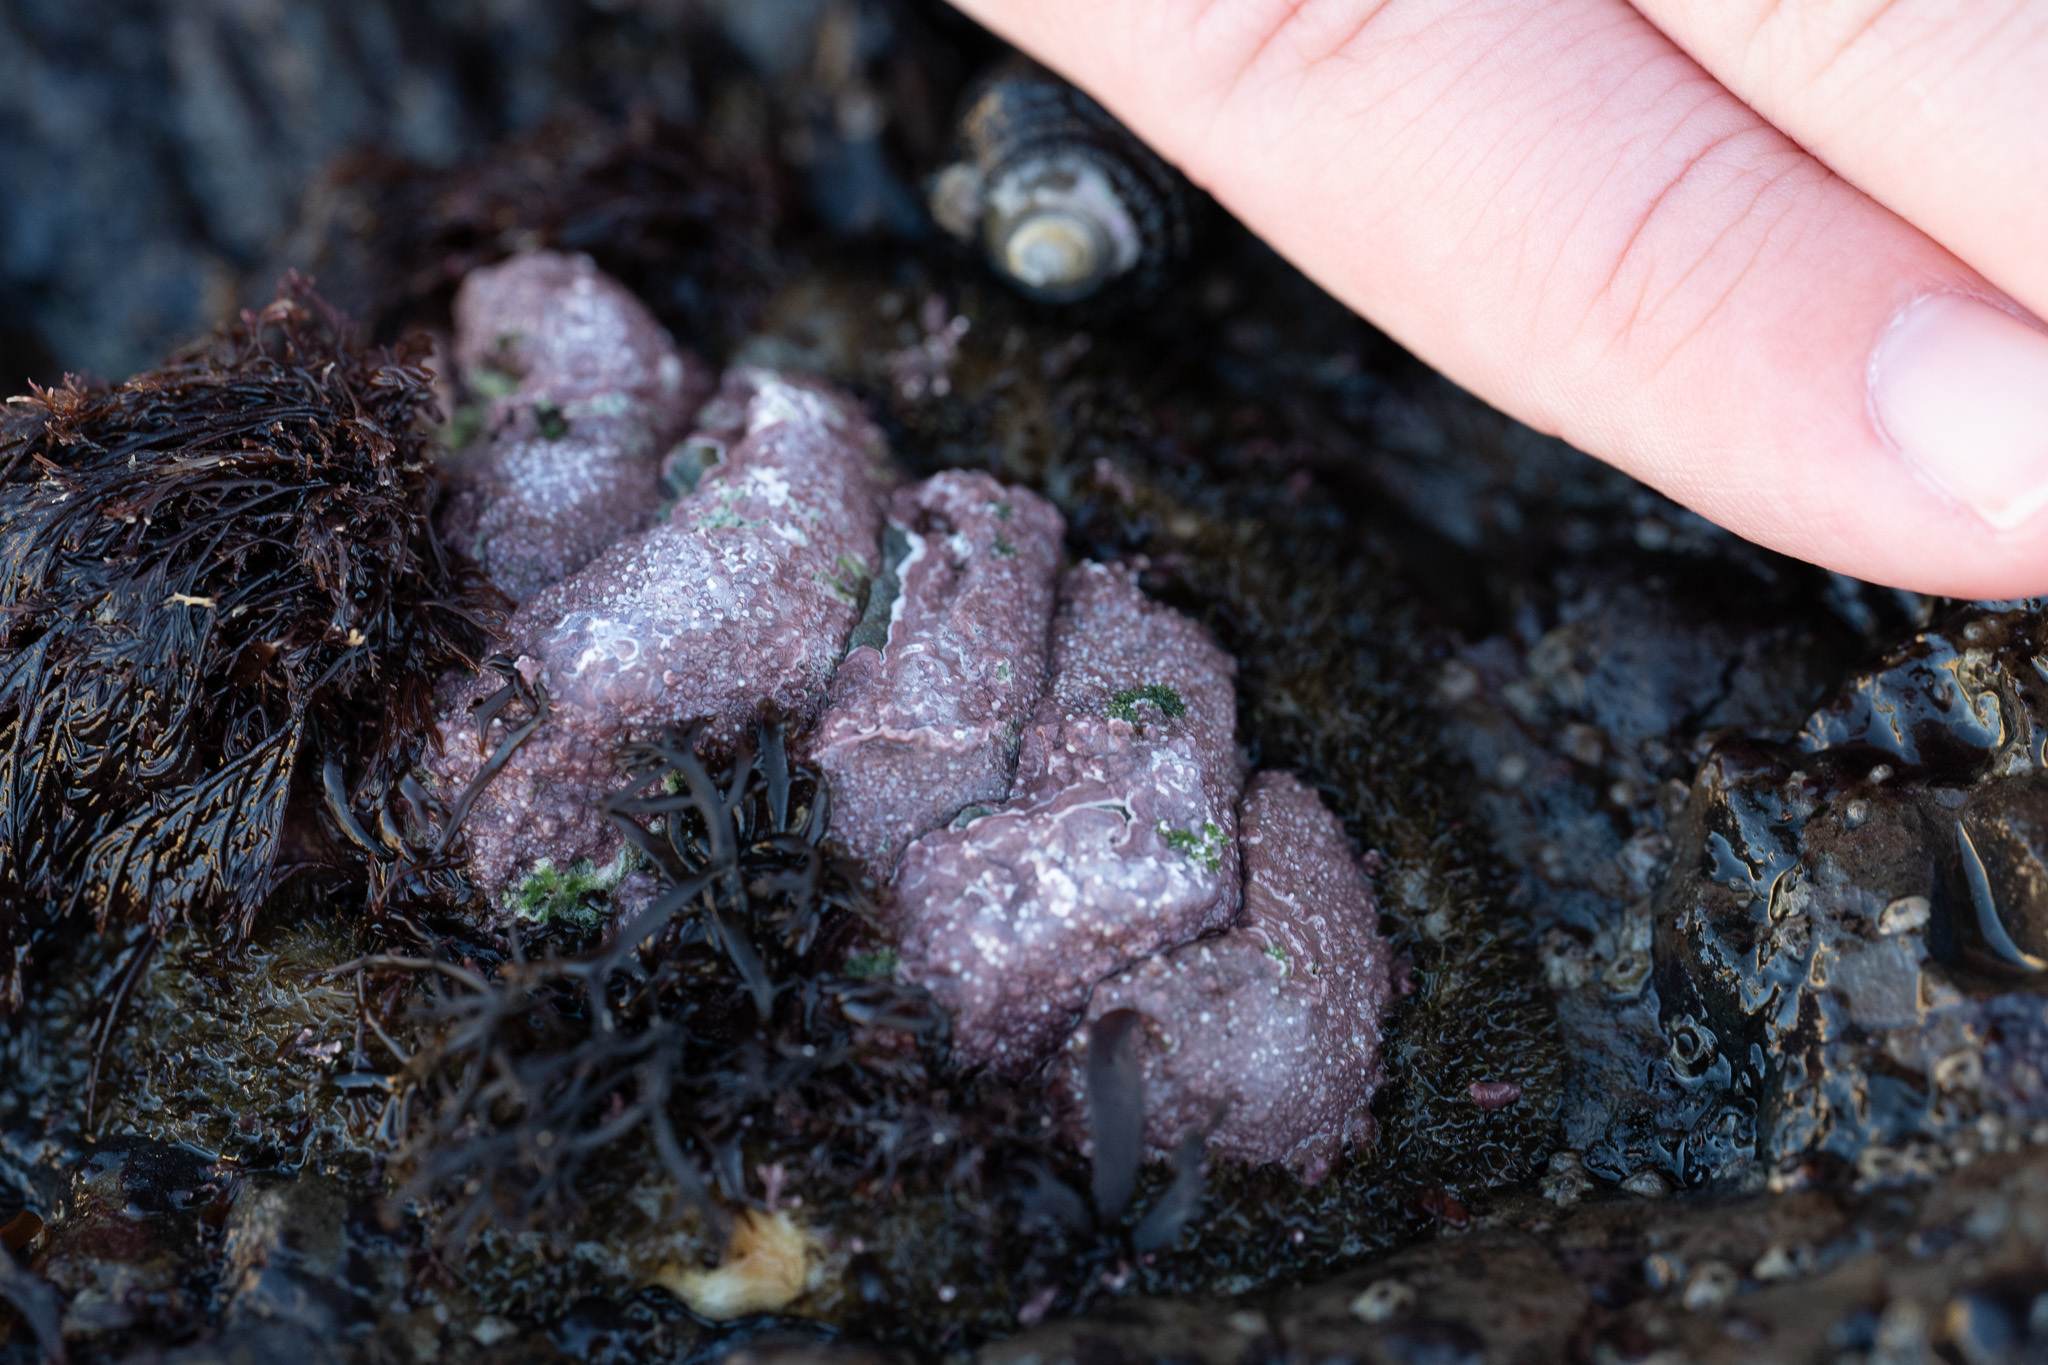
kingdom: Animalia
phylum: Mollusca
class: Polyplacophora
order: Chitonida
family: Mopaliidae
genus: Mopalia
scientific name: Mopalia muscosa
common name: Mossy chiton
